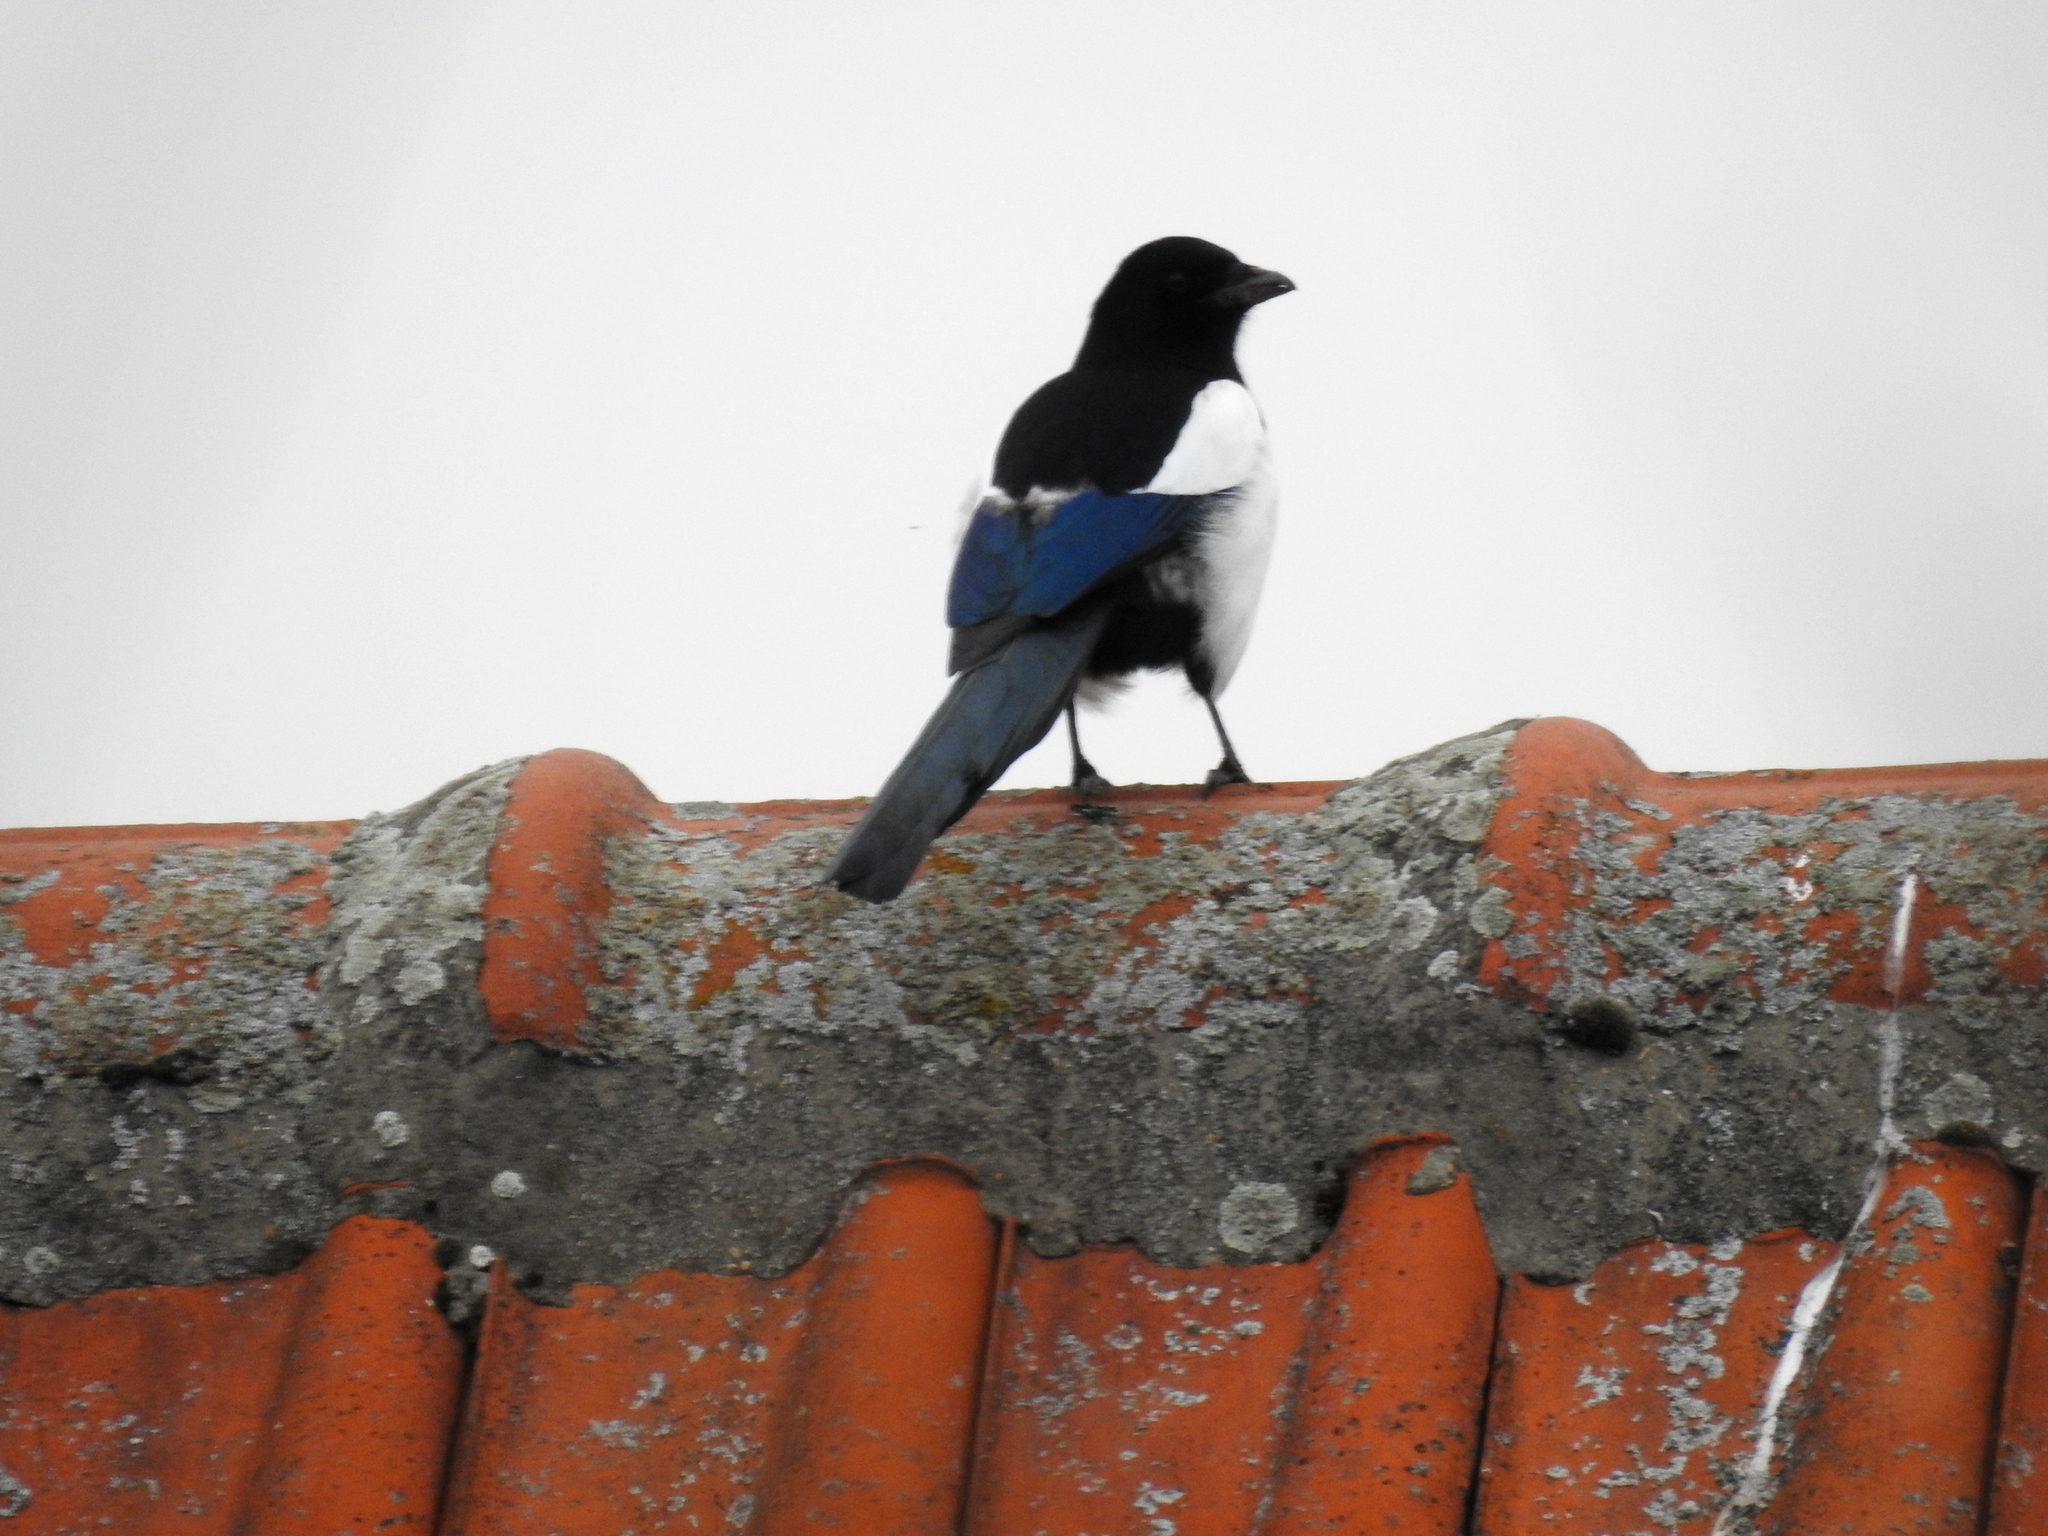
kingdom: Animalia
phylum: Chordata
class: Aves
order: Passeriformes
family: Corvidae
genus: Pica
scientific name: Pica pica
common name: Eurasian magpie
